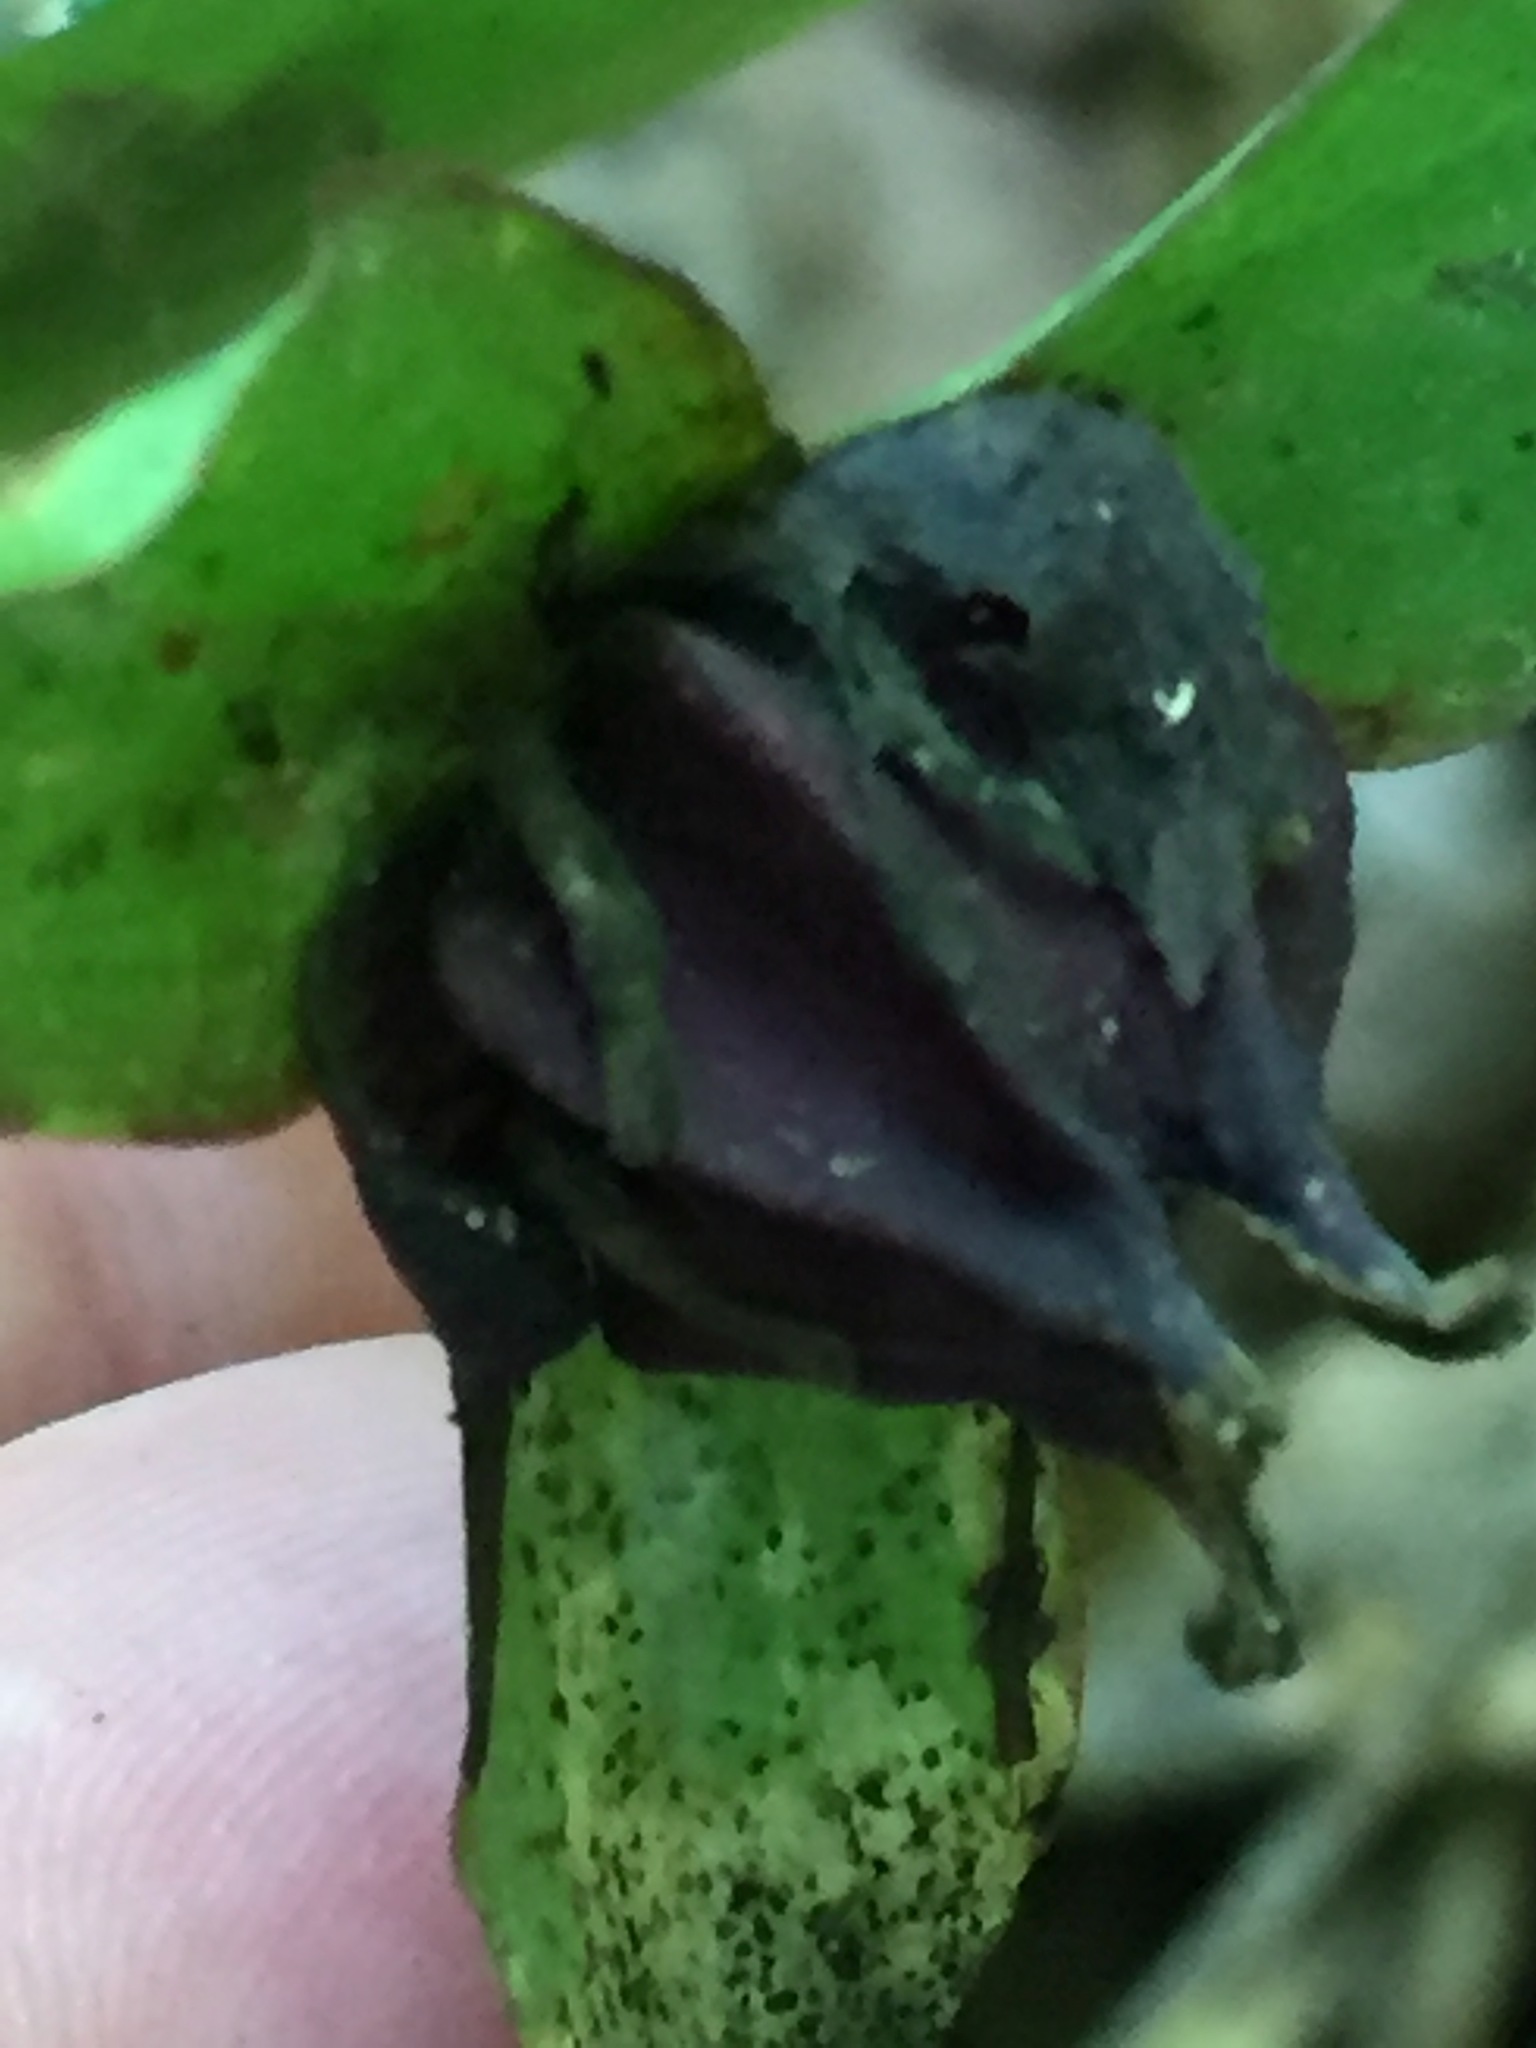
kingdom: Plantae
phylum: Tracheophyta
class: Liliopsida
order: Liliales
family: Melanthiaceae
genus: Trillium
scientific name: Trillium erectum
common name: Purple trillium
